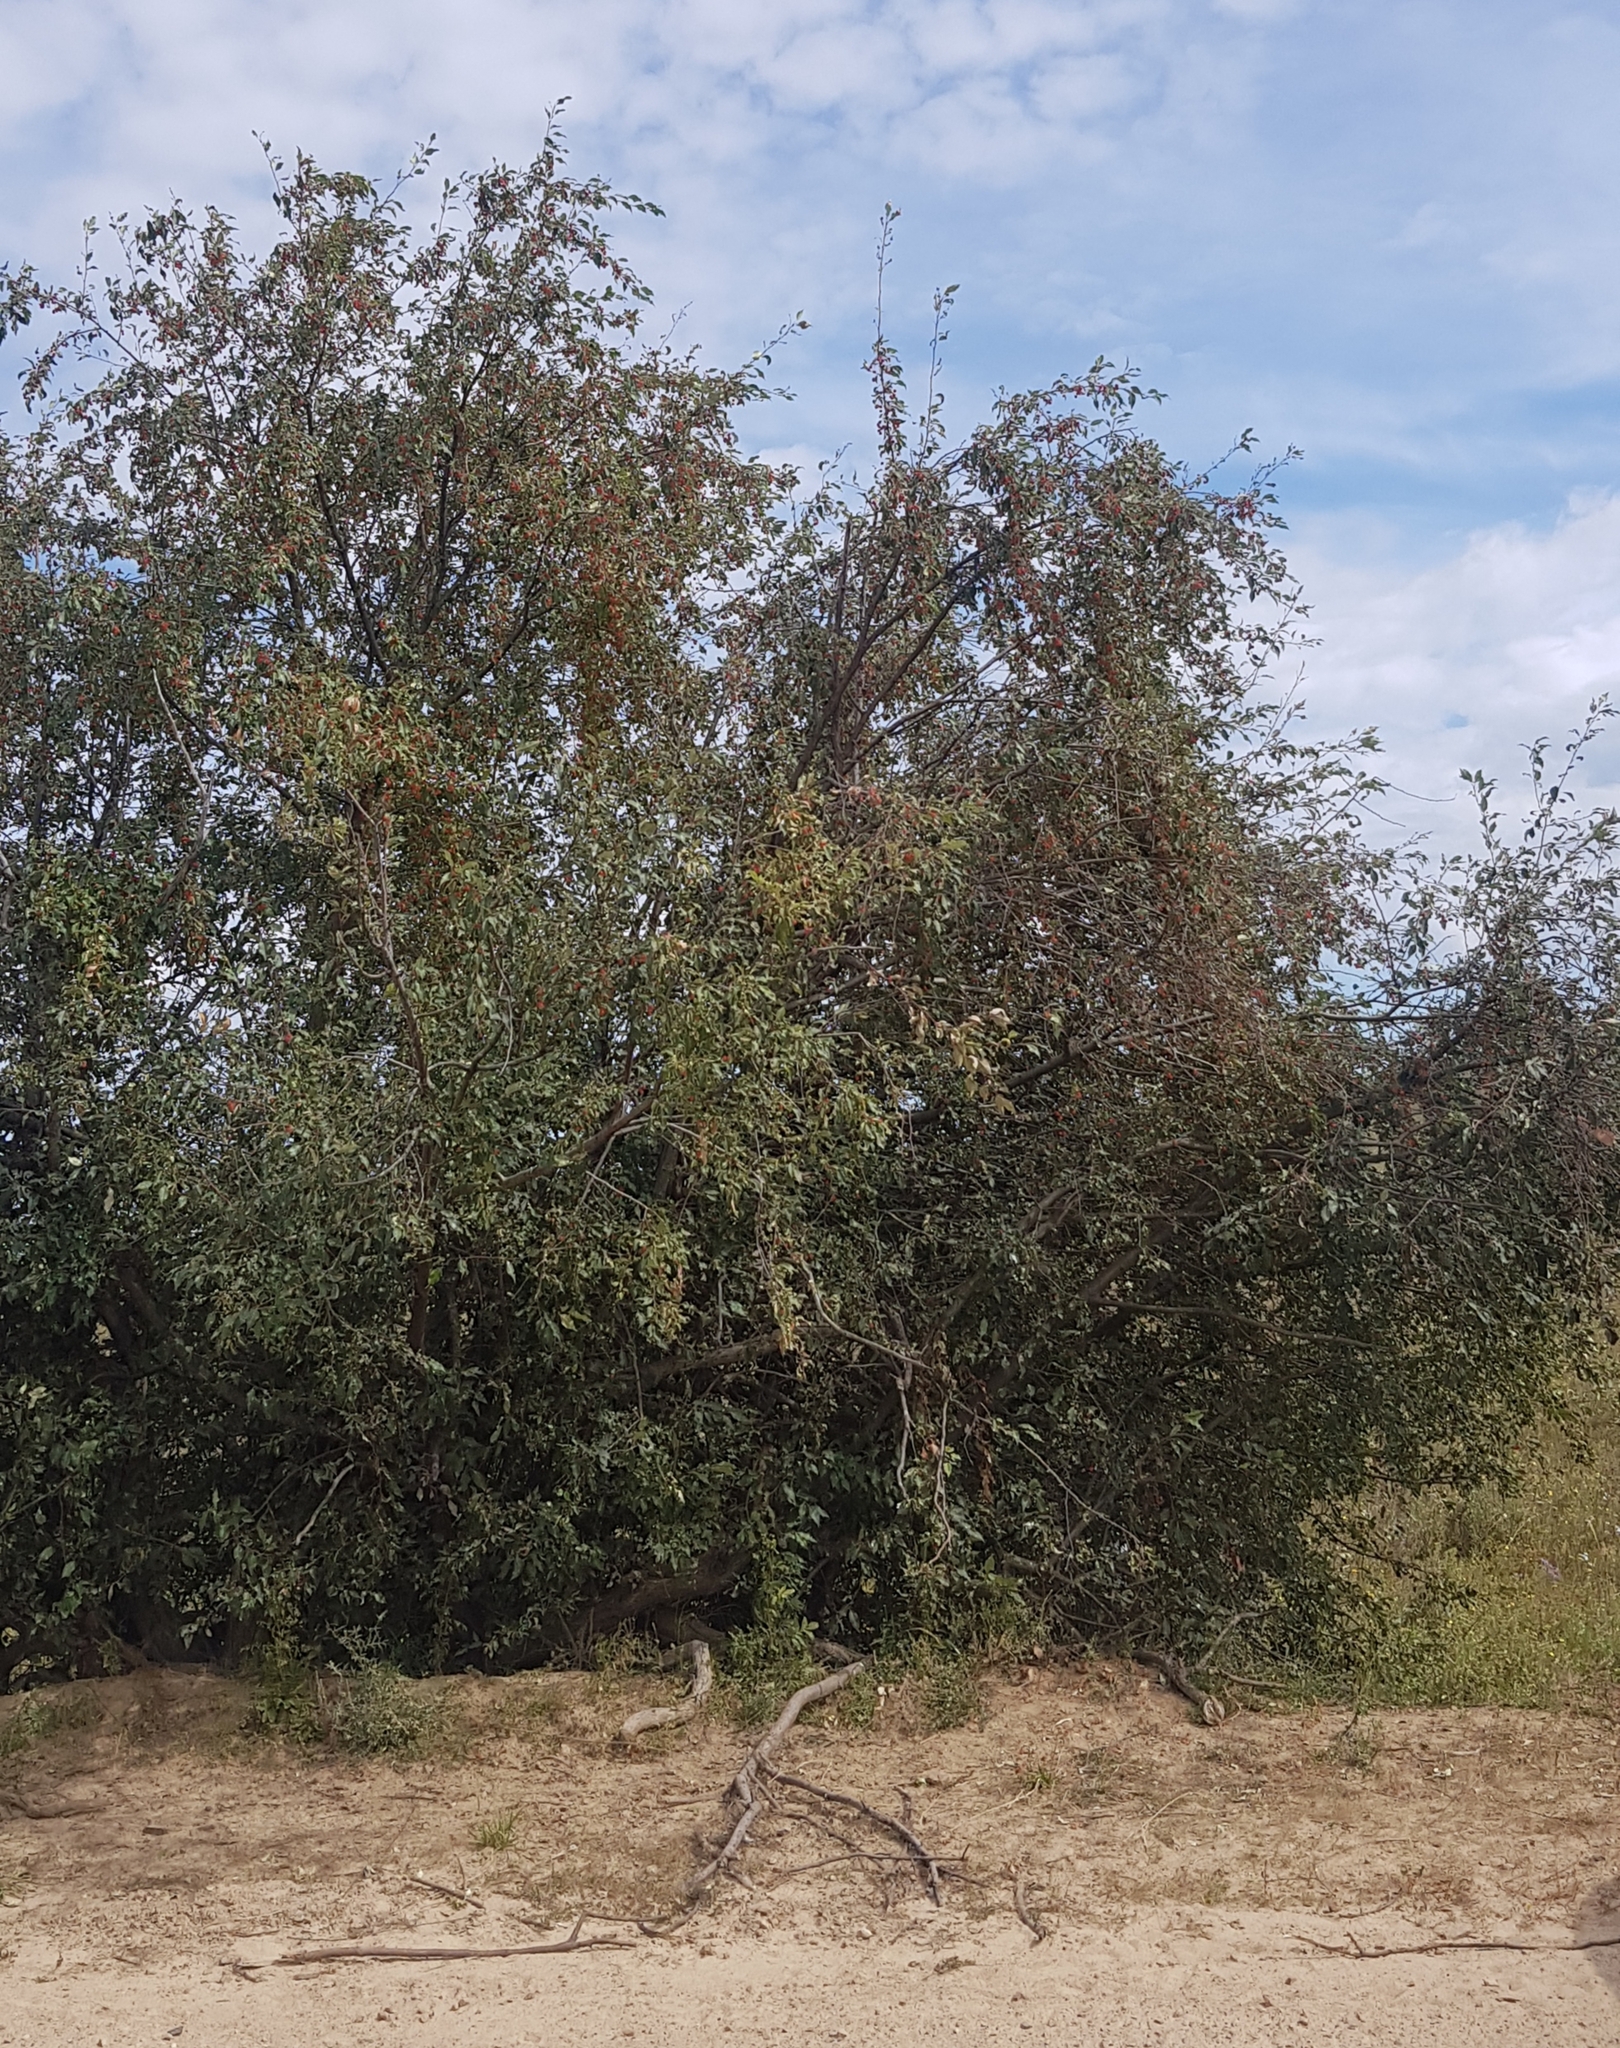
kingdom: Plantae
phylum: Tracheophyta
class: Magnoliopsida
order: Rosales
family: Rosaceae
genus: Malus
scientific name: Malus baccata
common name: Siberian crab
